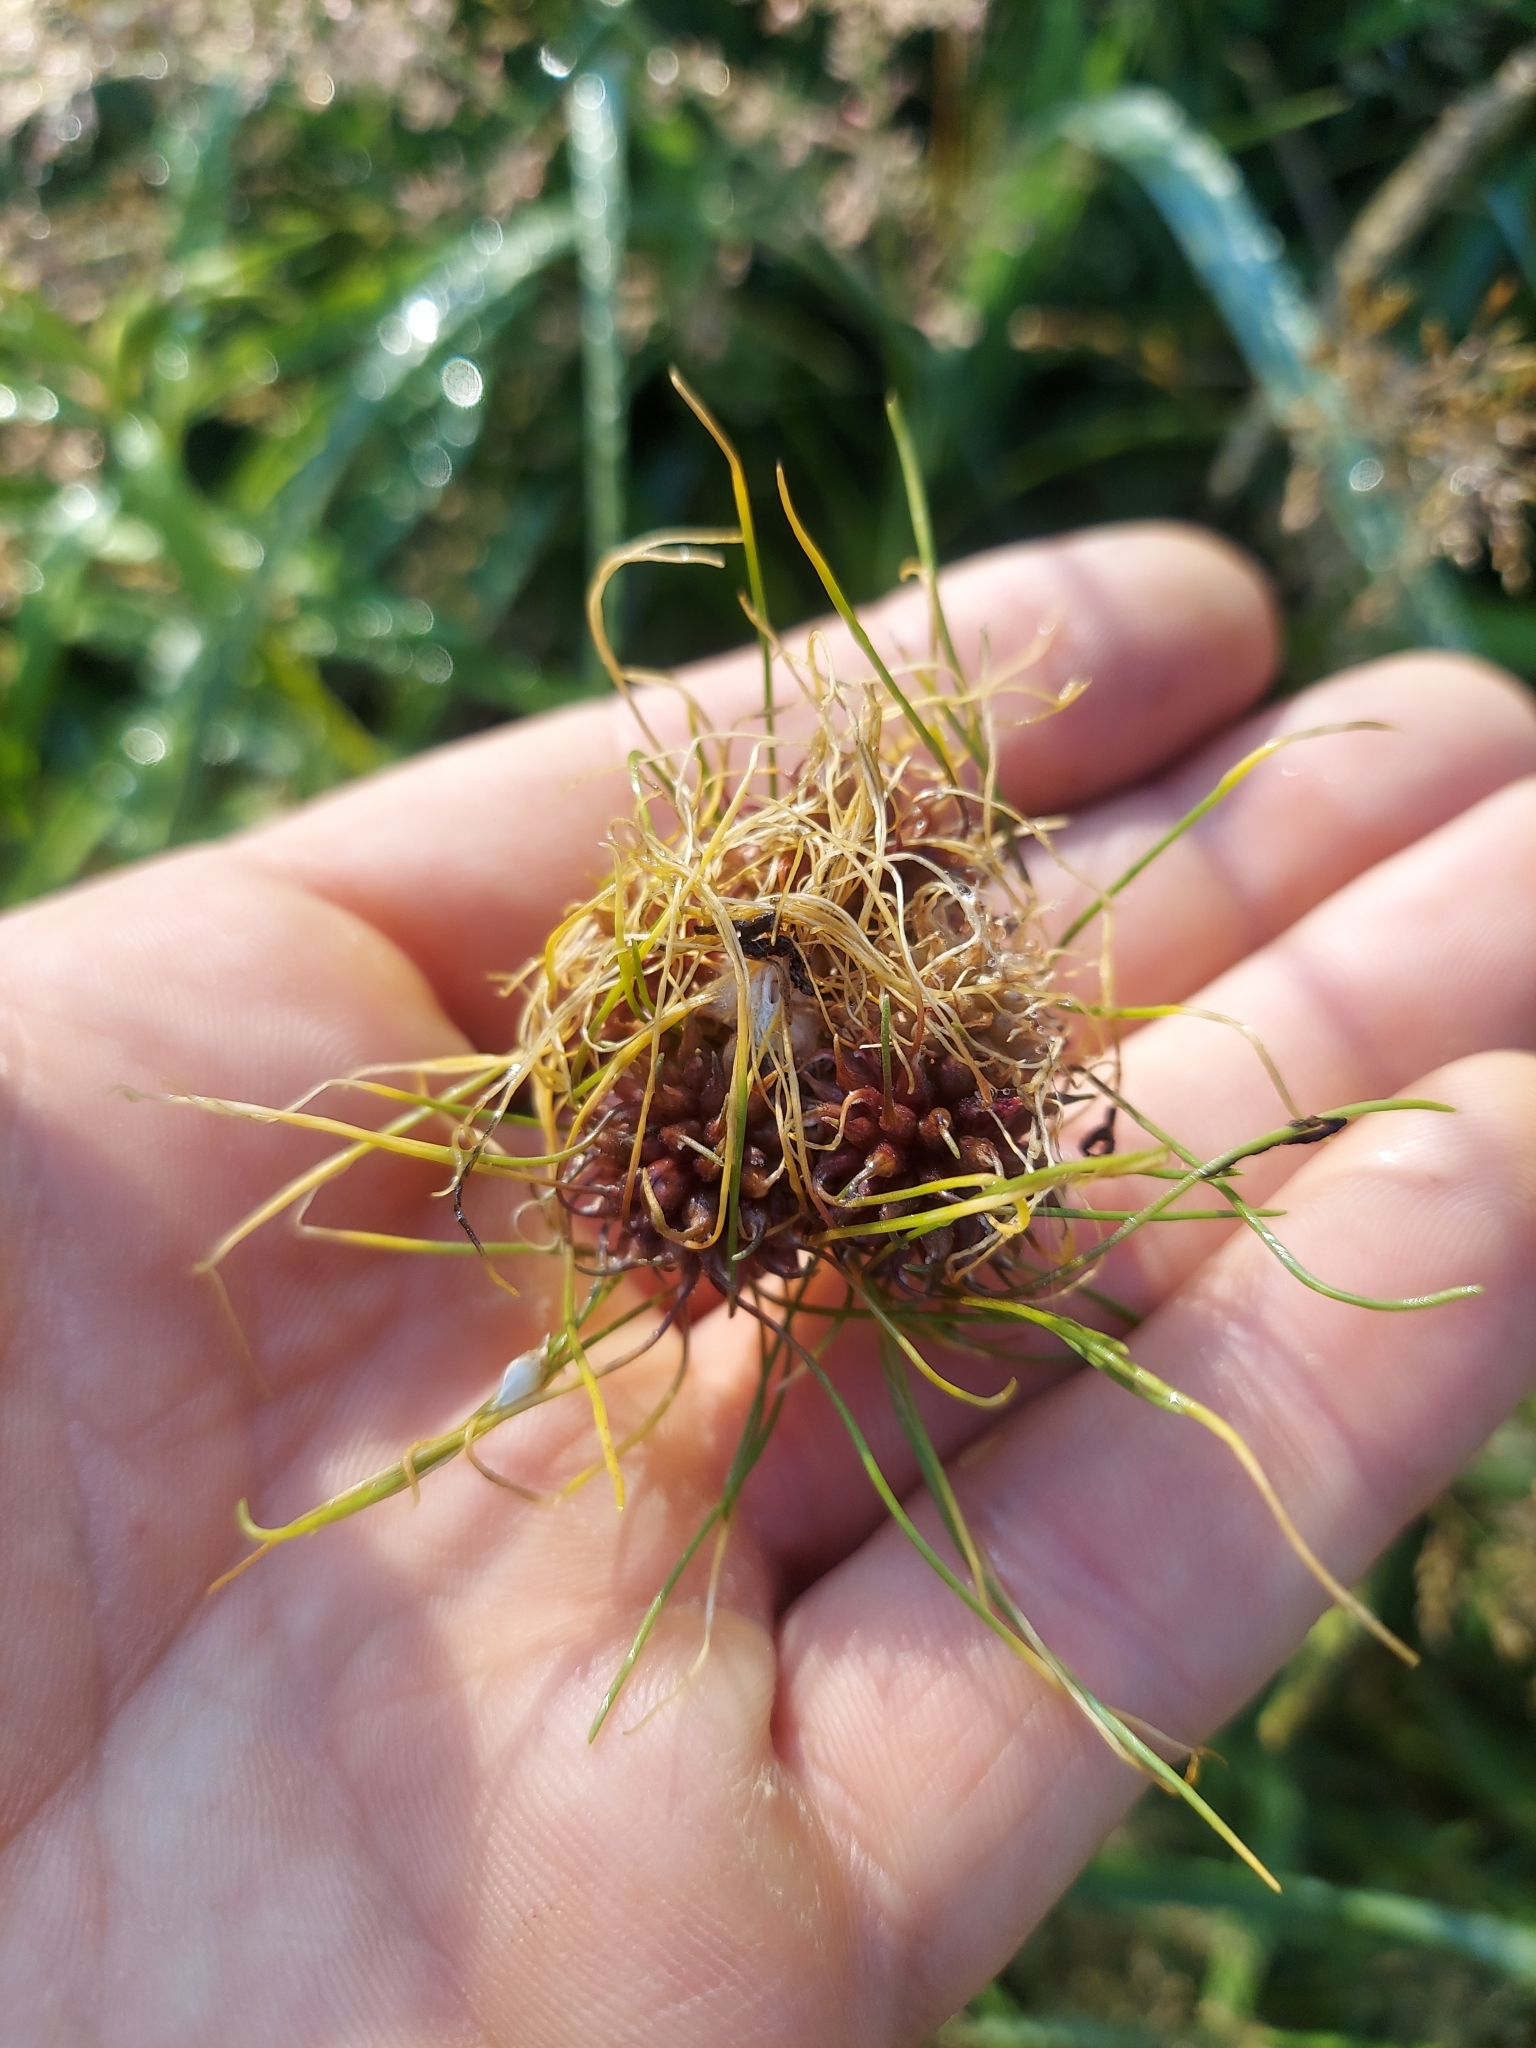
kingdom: Plantae
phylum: Tracheophyta
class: Liliopsida
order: Asparagales
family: Amaryllidaceae
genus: Allium
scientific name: Allium vineale
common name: Crow garlic
